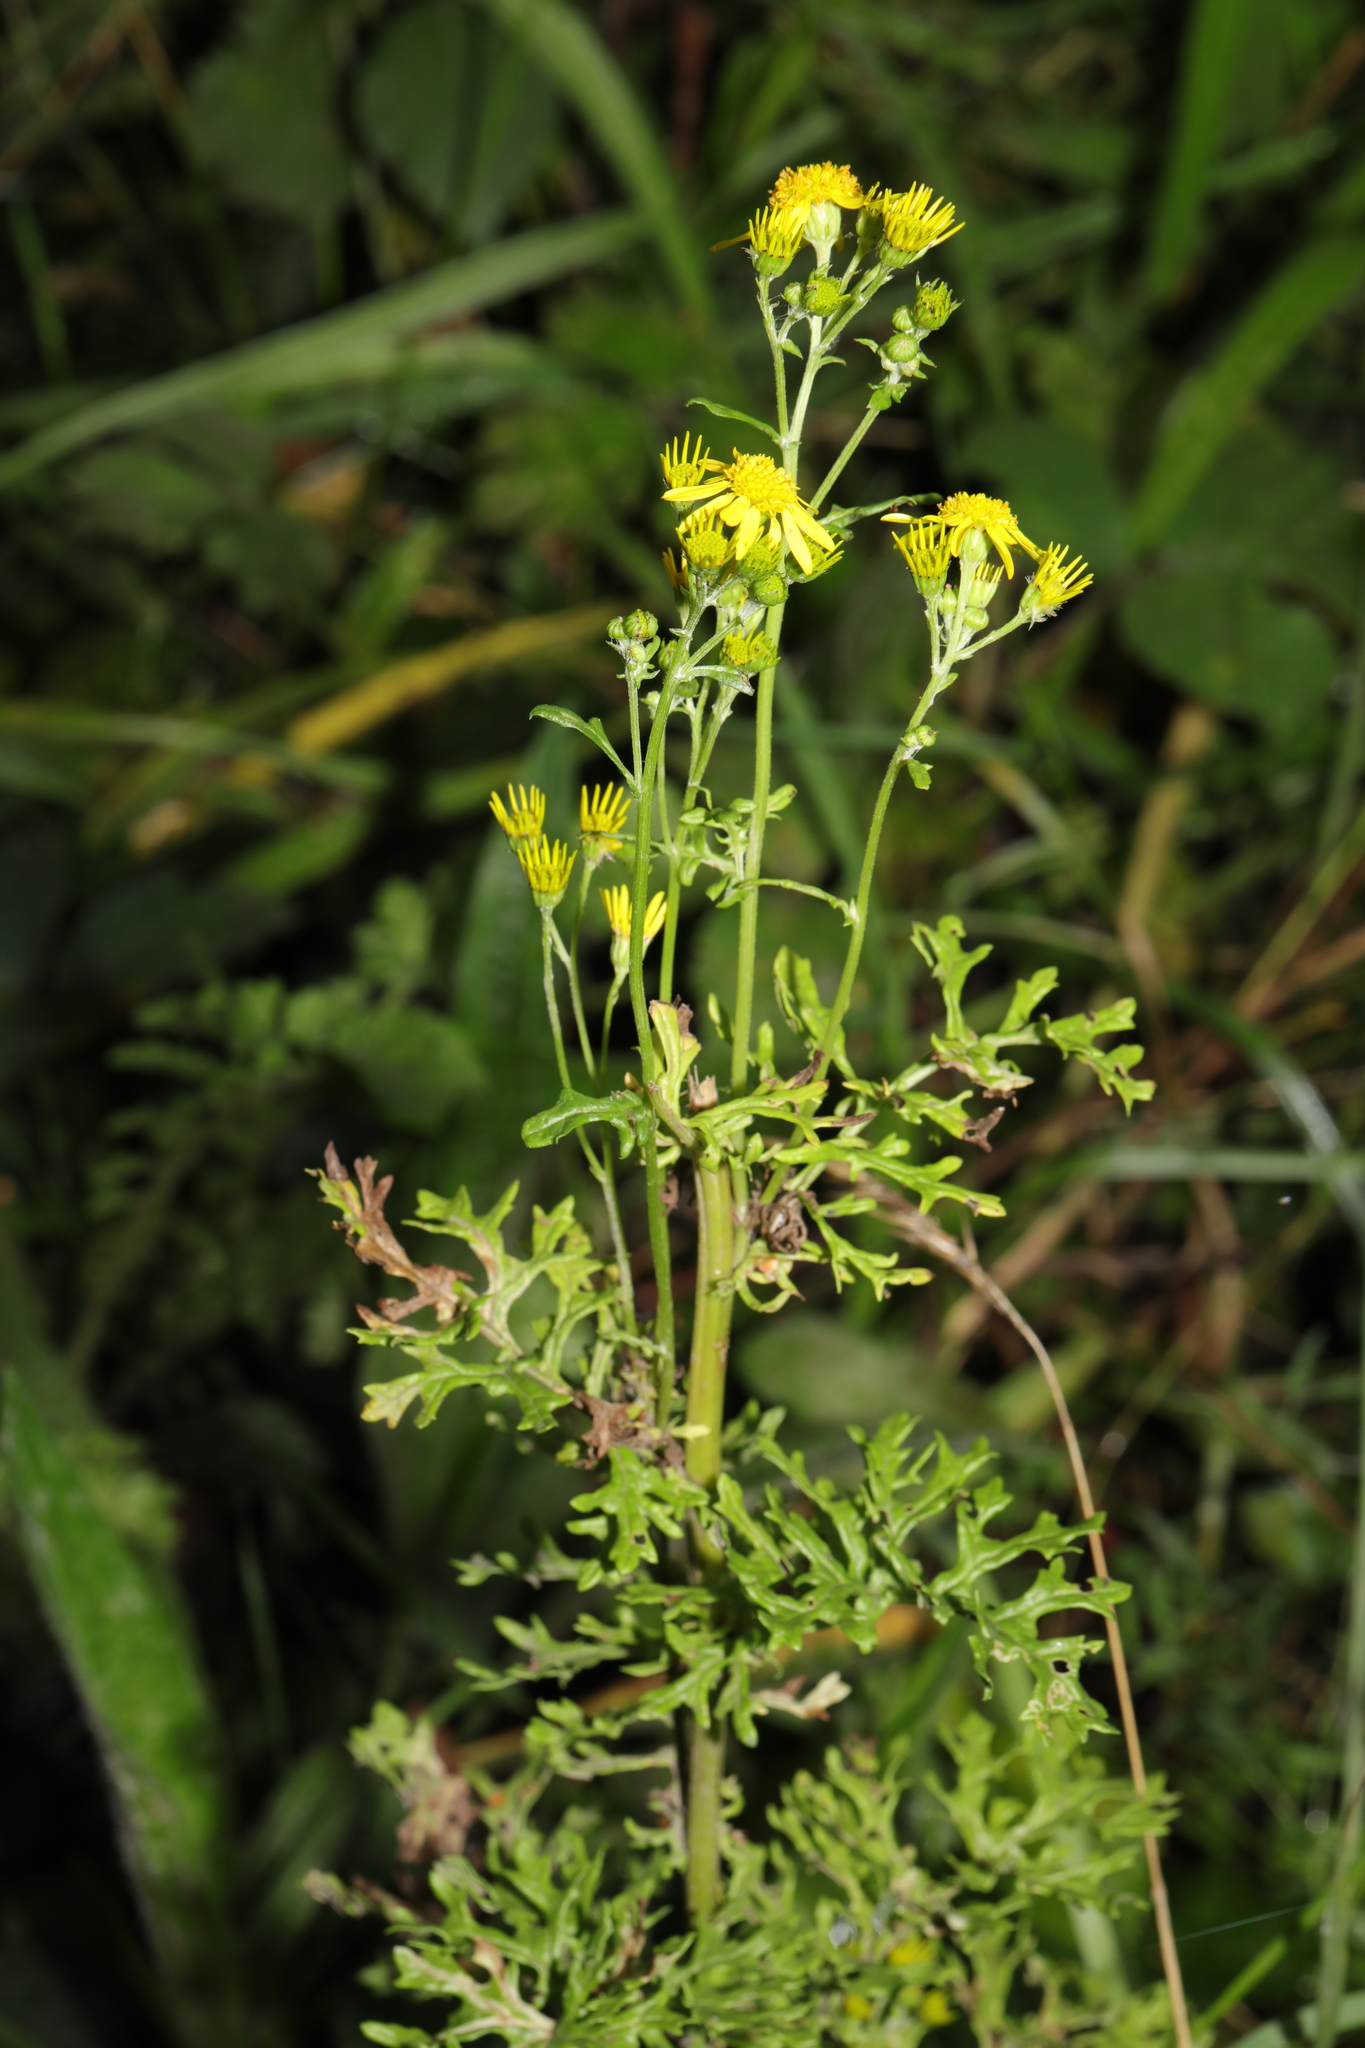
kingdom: Plantae
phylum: Tracheophyta
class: Magnoliopsida
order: Asterales
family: Asteraceae
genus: Jacobaea
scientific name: Jacobaea vulgaris
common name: Stinking willie
